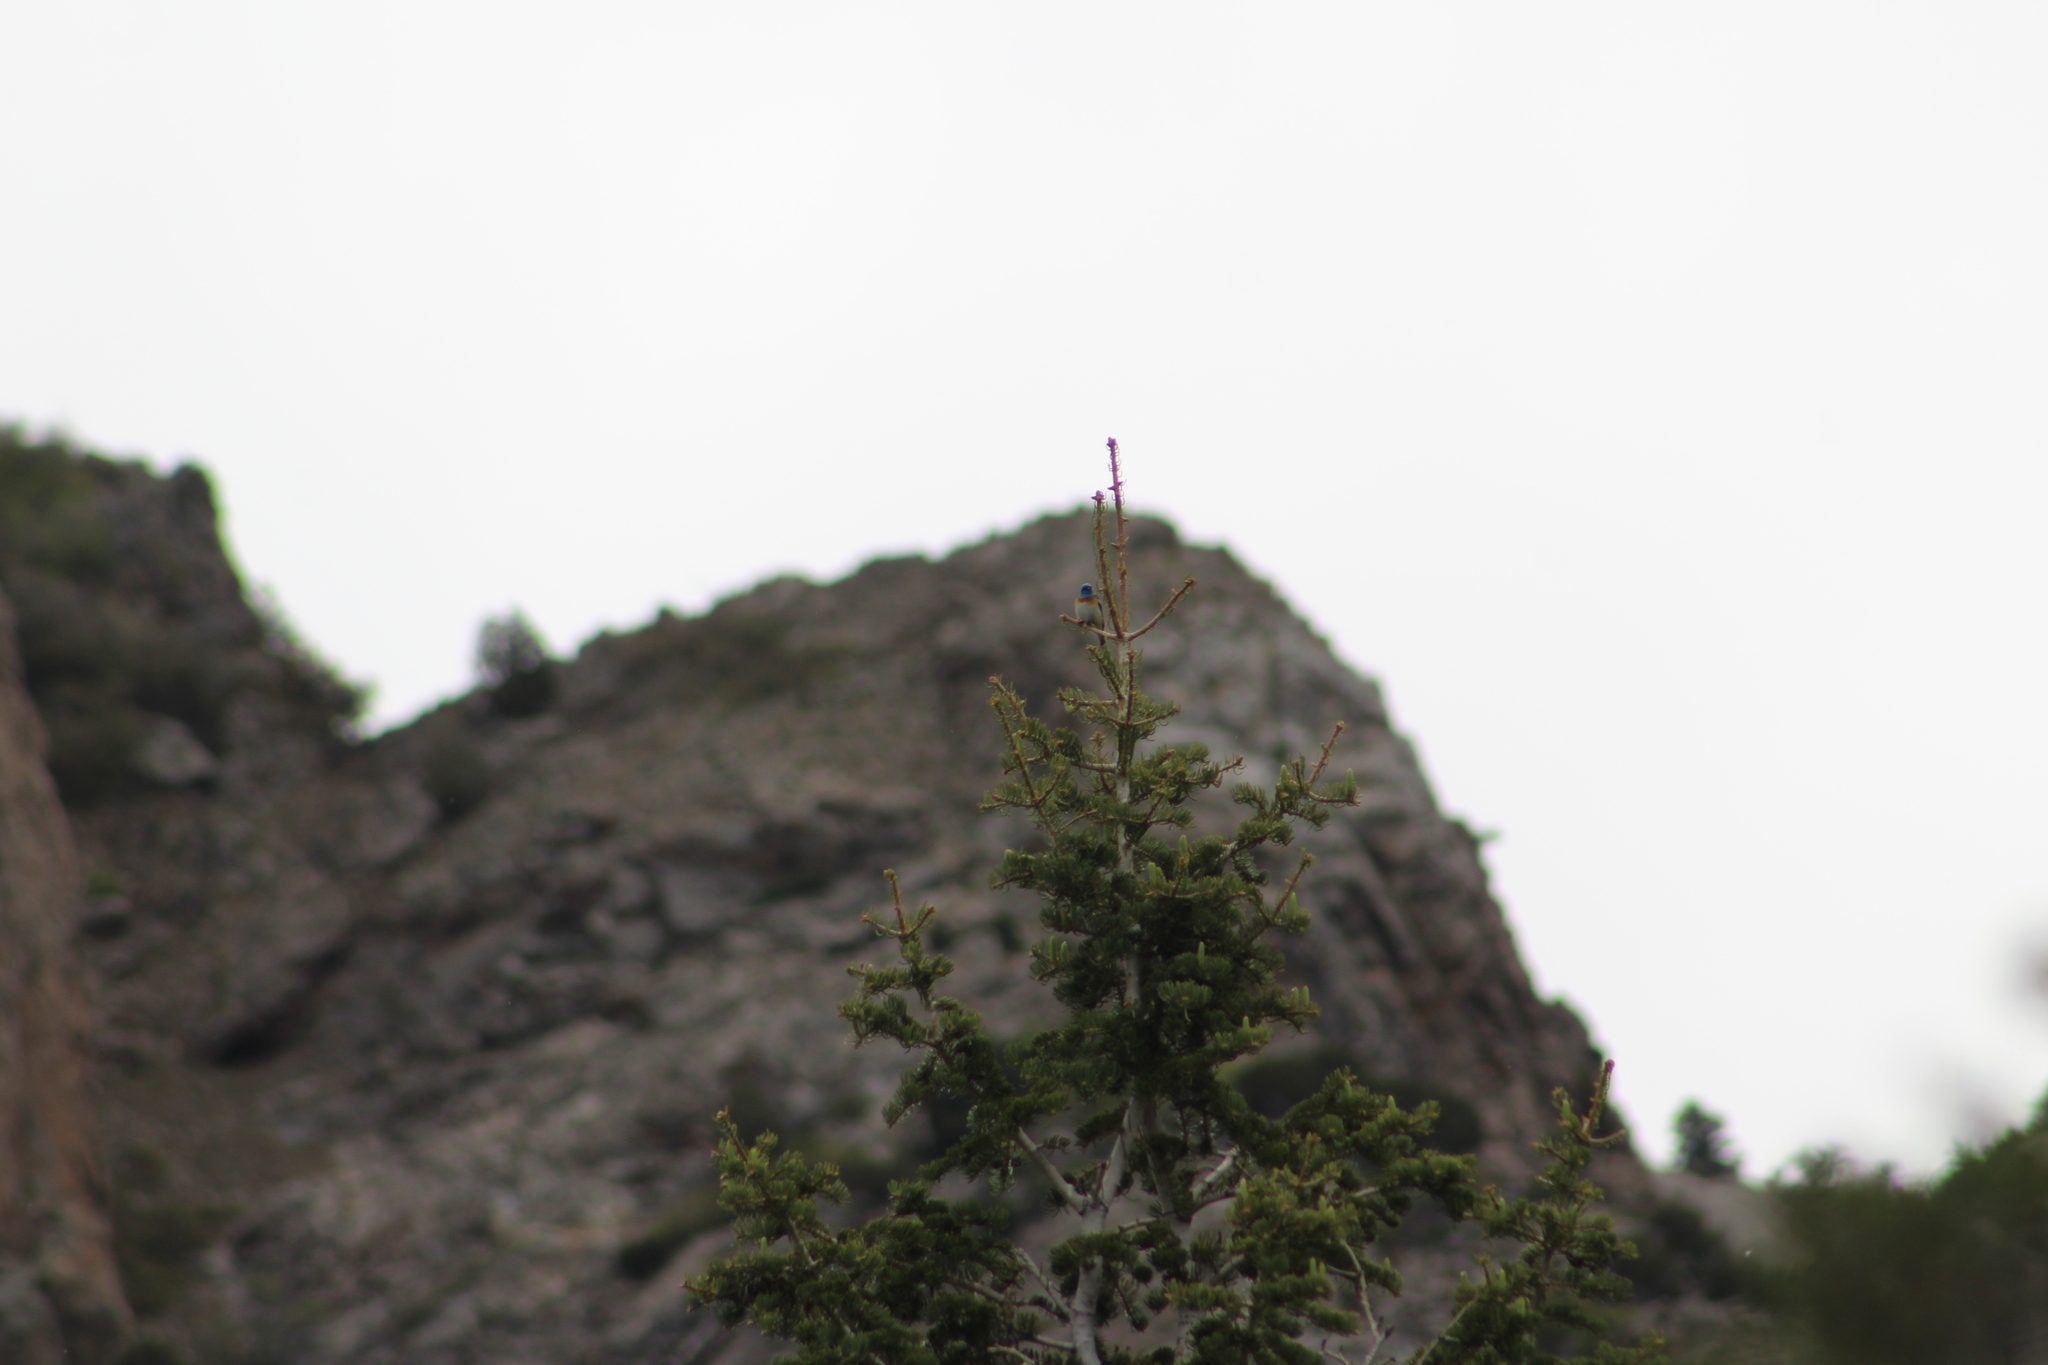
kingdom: Animalia
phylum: Chordata
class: Aves
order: Passeriformes
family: Cardinalidae
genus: Passerina
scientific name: Passerina amoena
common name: Lazuli bunting
